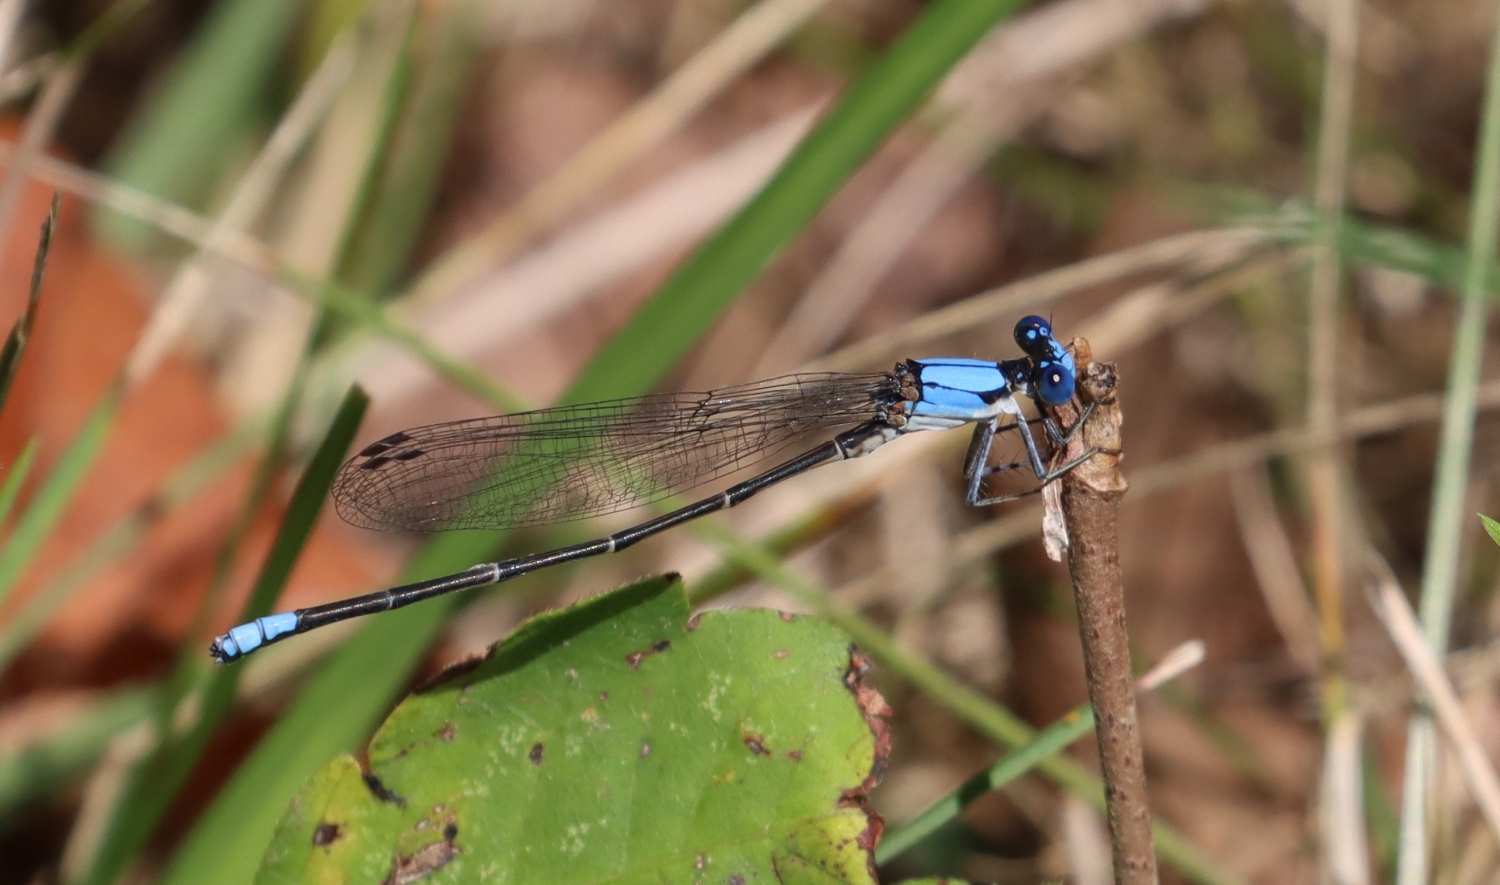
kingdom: Animalia
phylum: Arthropoda
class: Insecta
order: Odonata
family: Coenagrionidae
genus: Argia
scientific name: Argia apicalis
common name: Blue-fronted dancer
